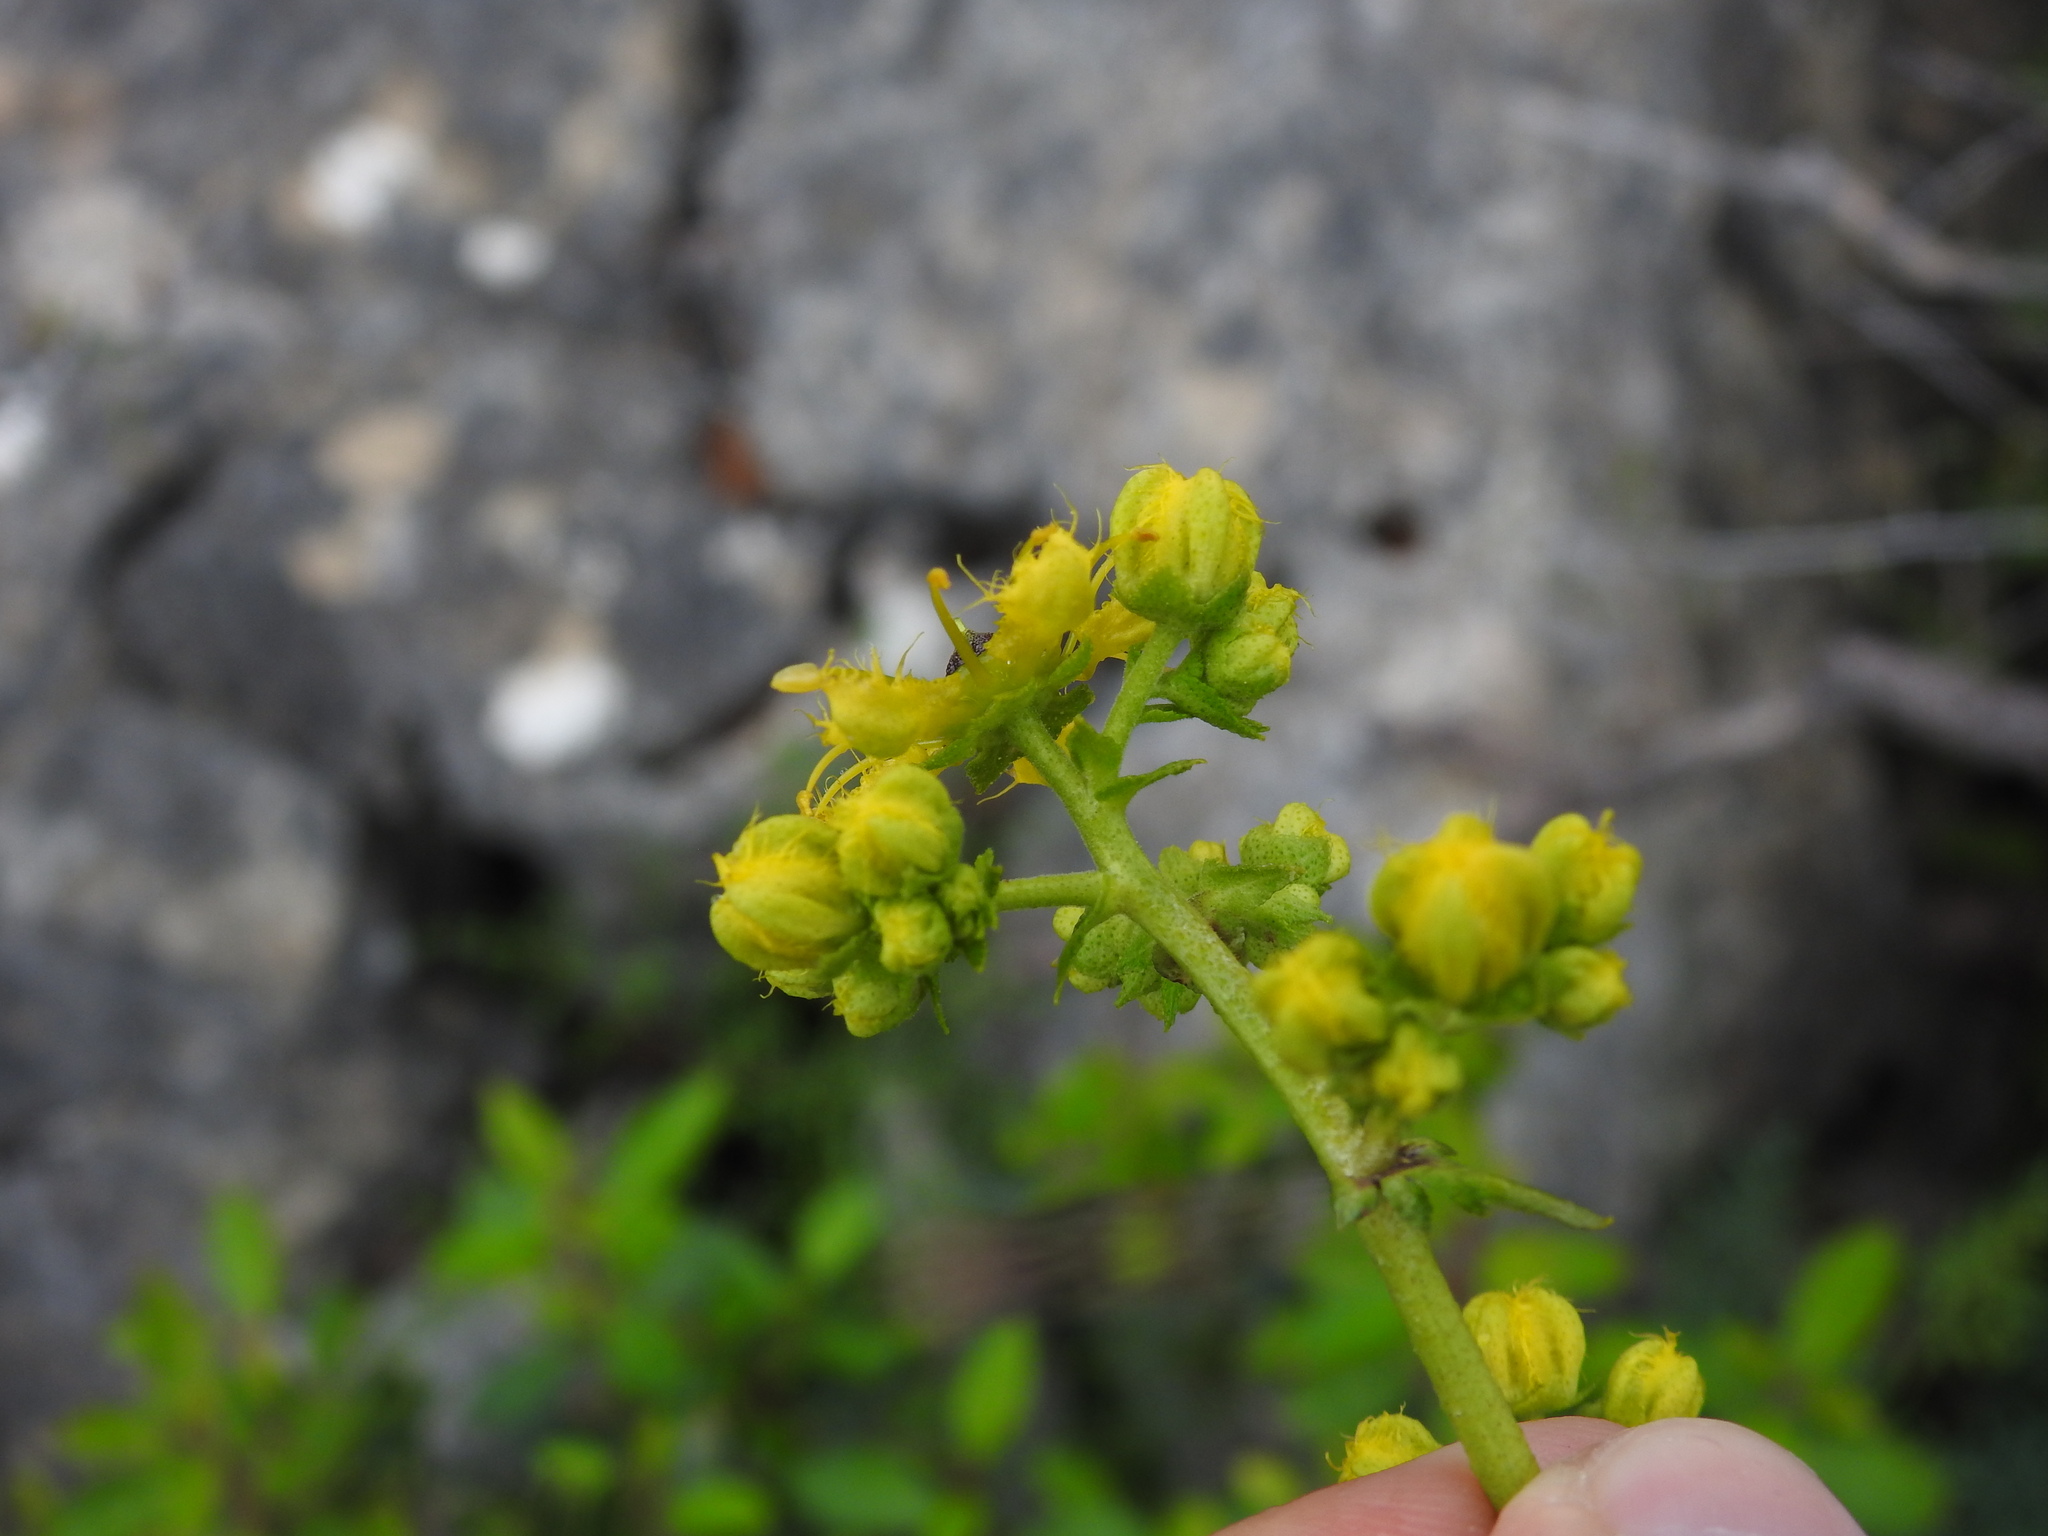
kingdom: Plantae
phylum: Tracheophyta
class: Magnoliopsida
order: Sapindales
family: Rutaceae
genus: Ruta
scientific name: Ruta angustifolia
